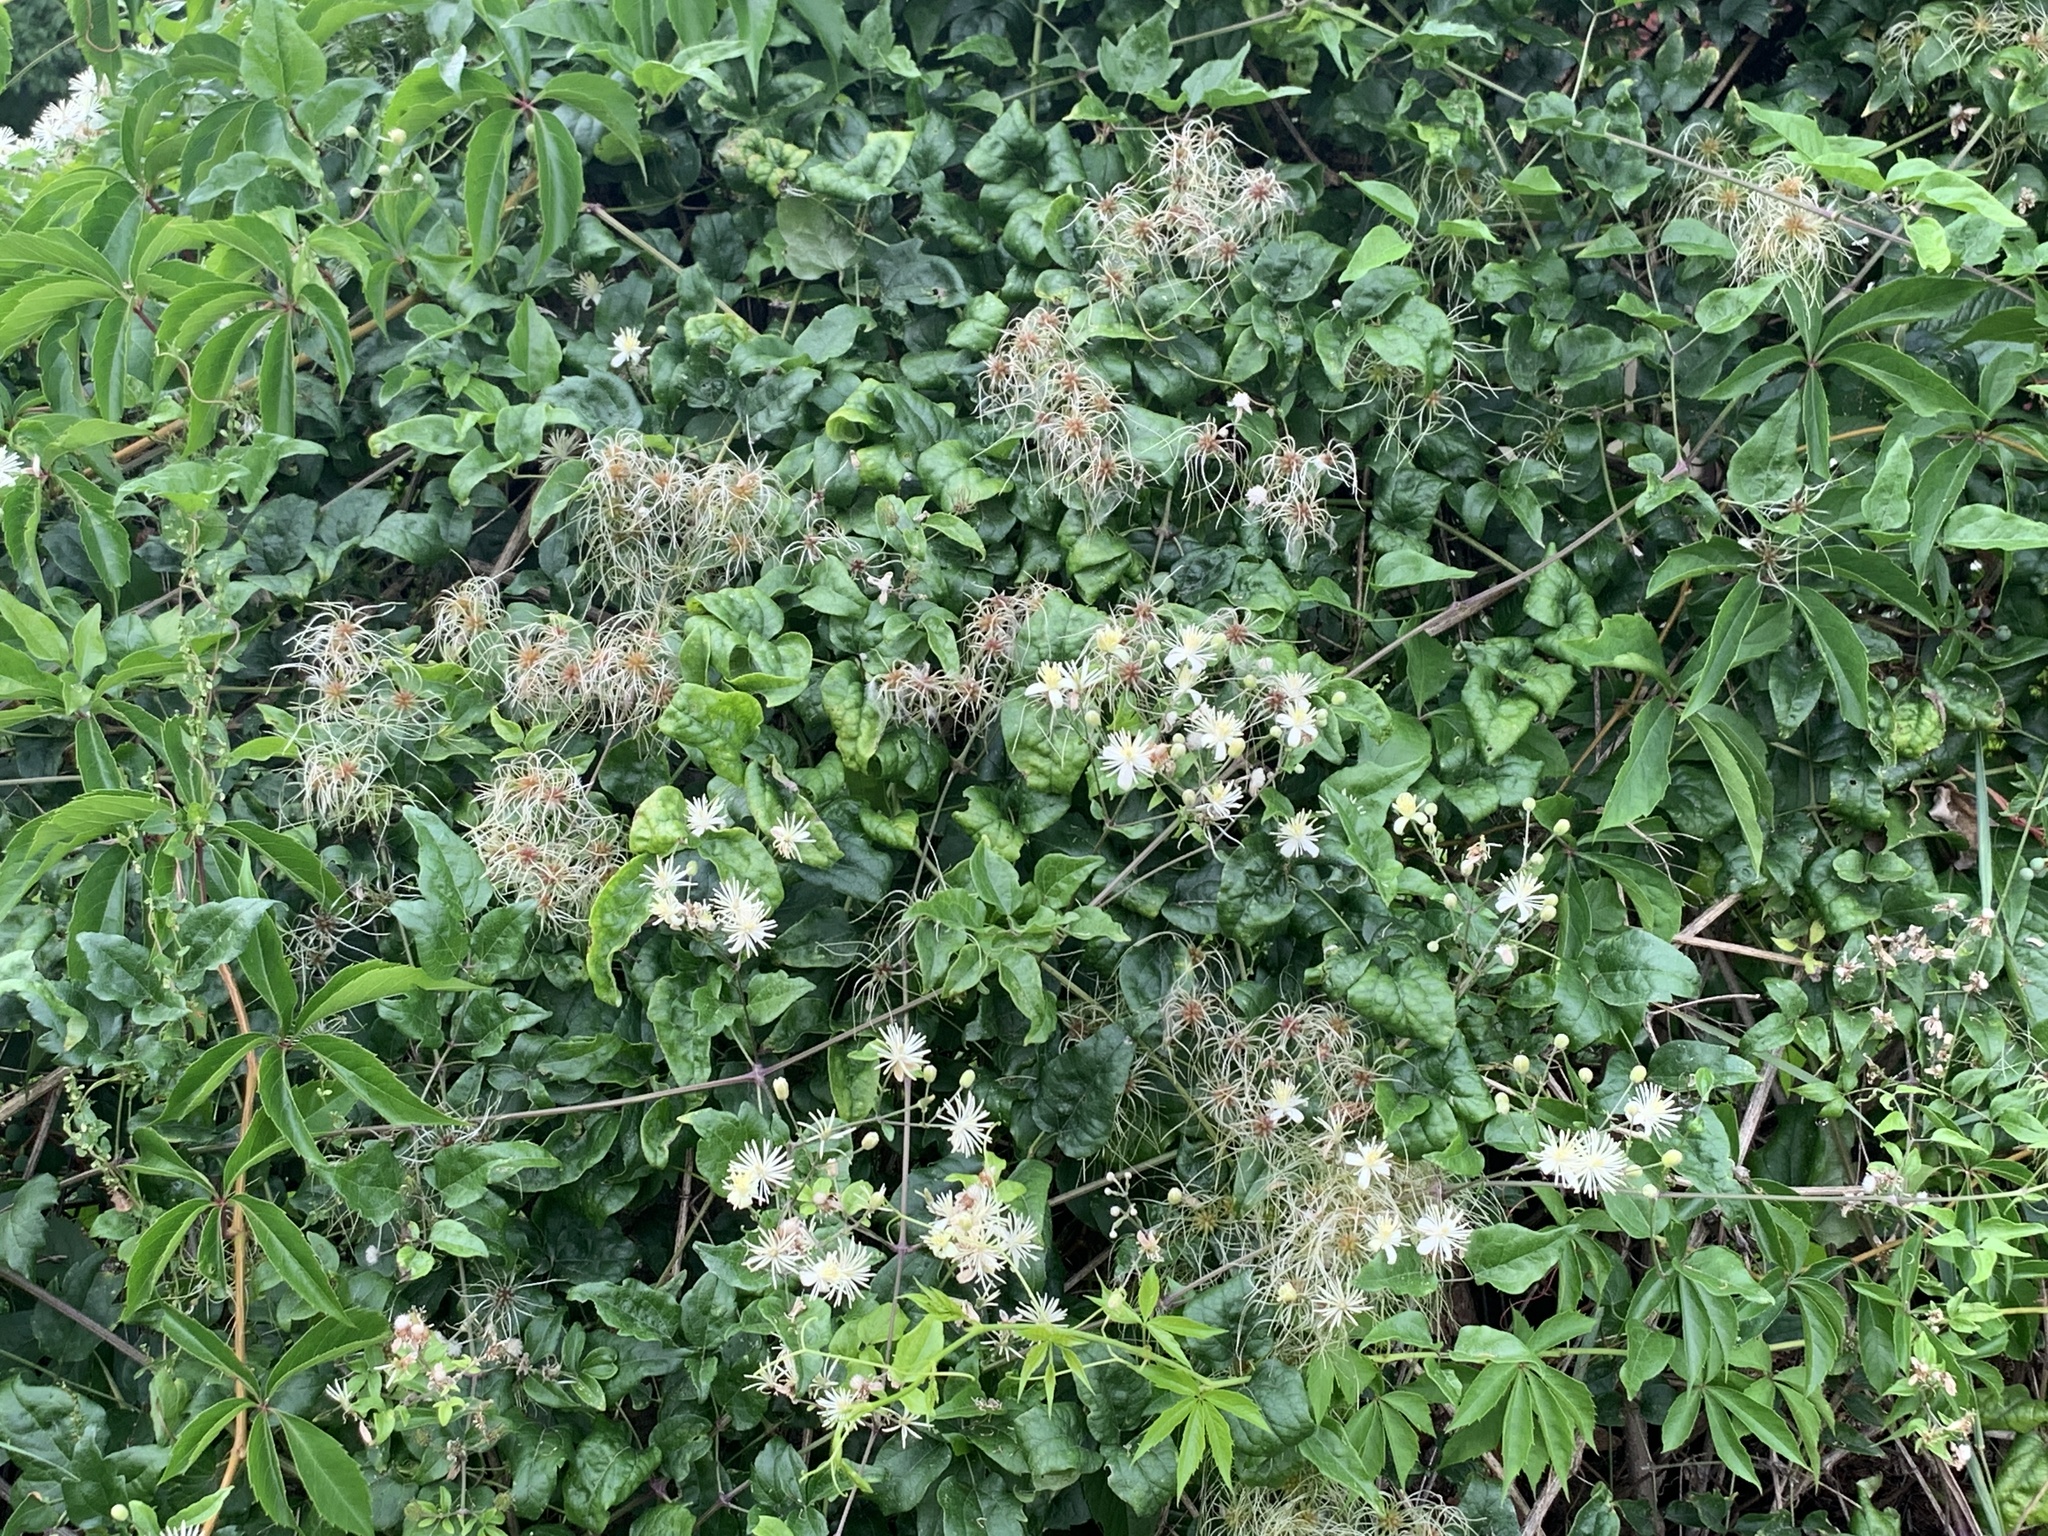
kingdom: Plantae
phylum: Tracheophyta
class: Magnoliopsida
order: Ranunculales
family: Ranunculaceae
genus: Clematis
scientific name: Clematis vitalba
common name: Evergreen clematis
